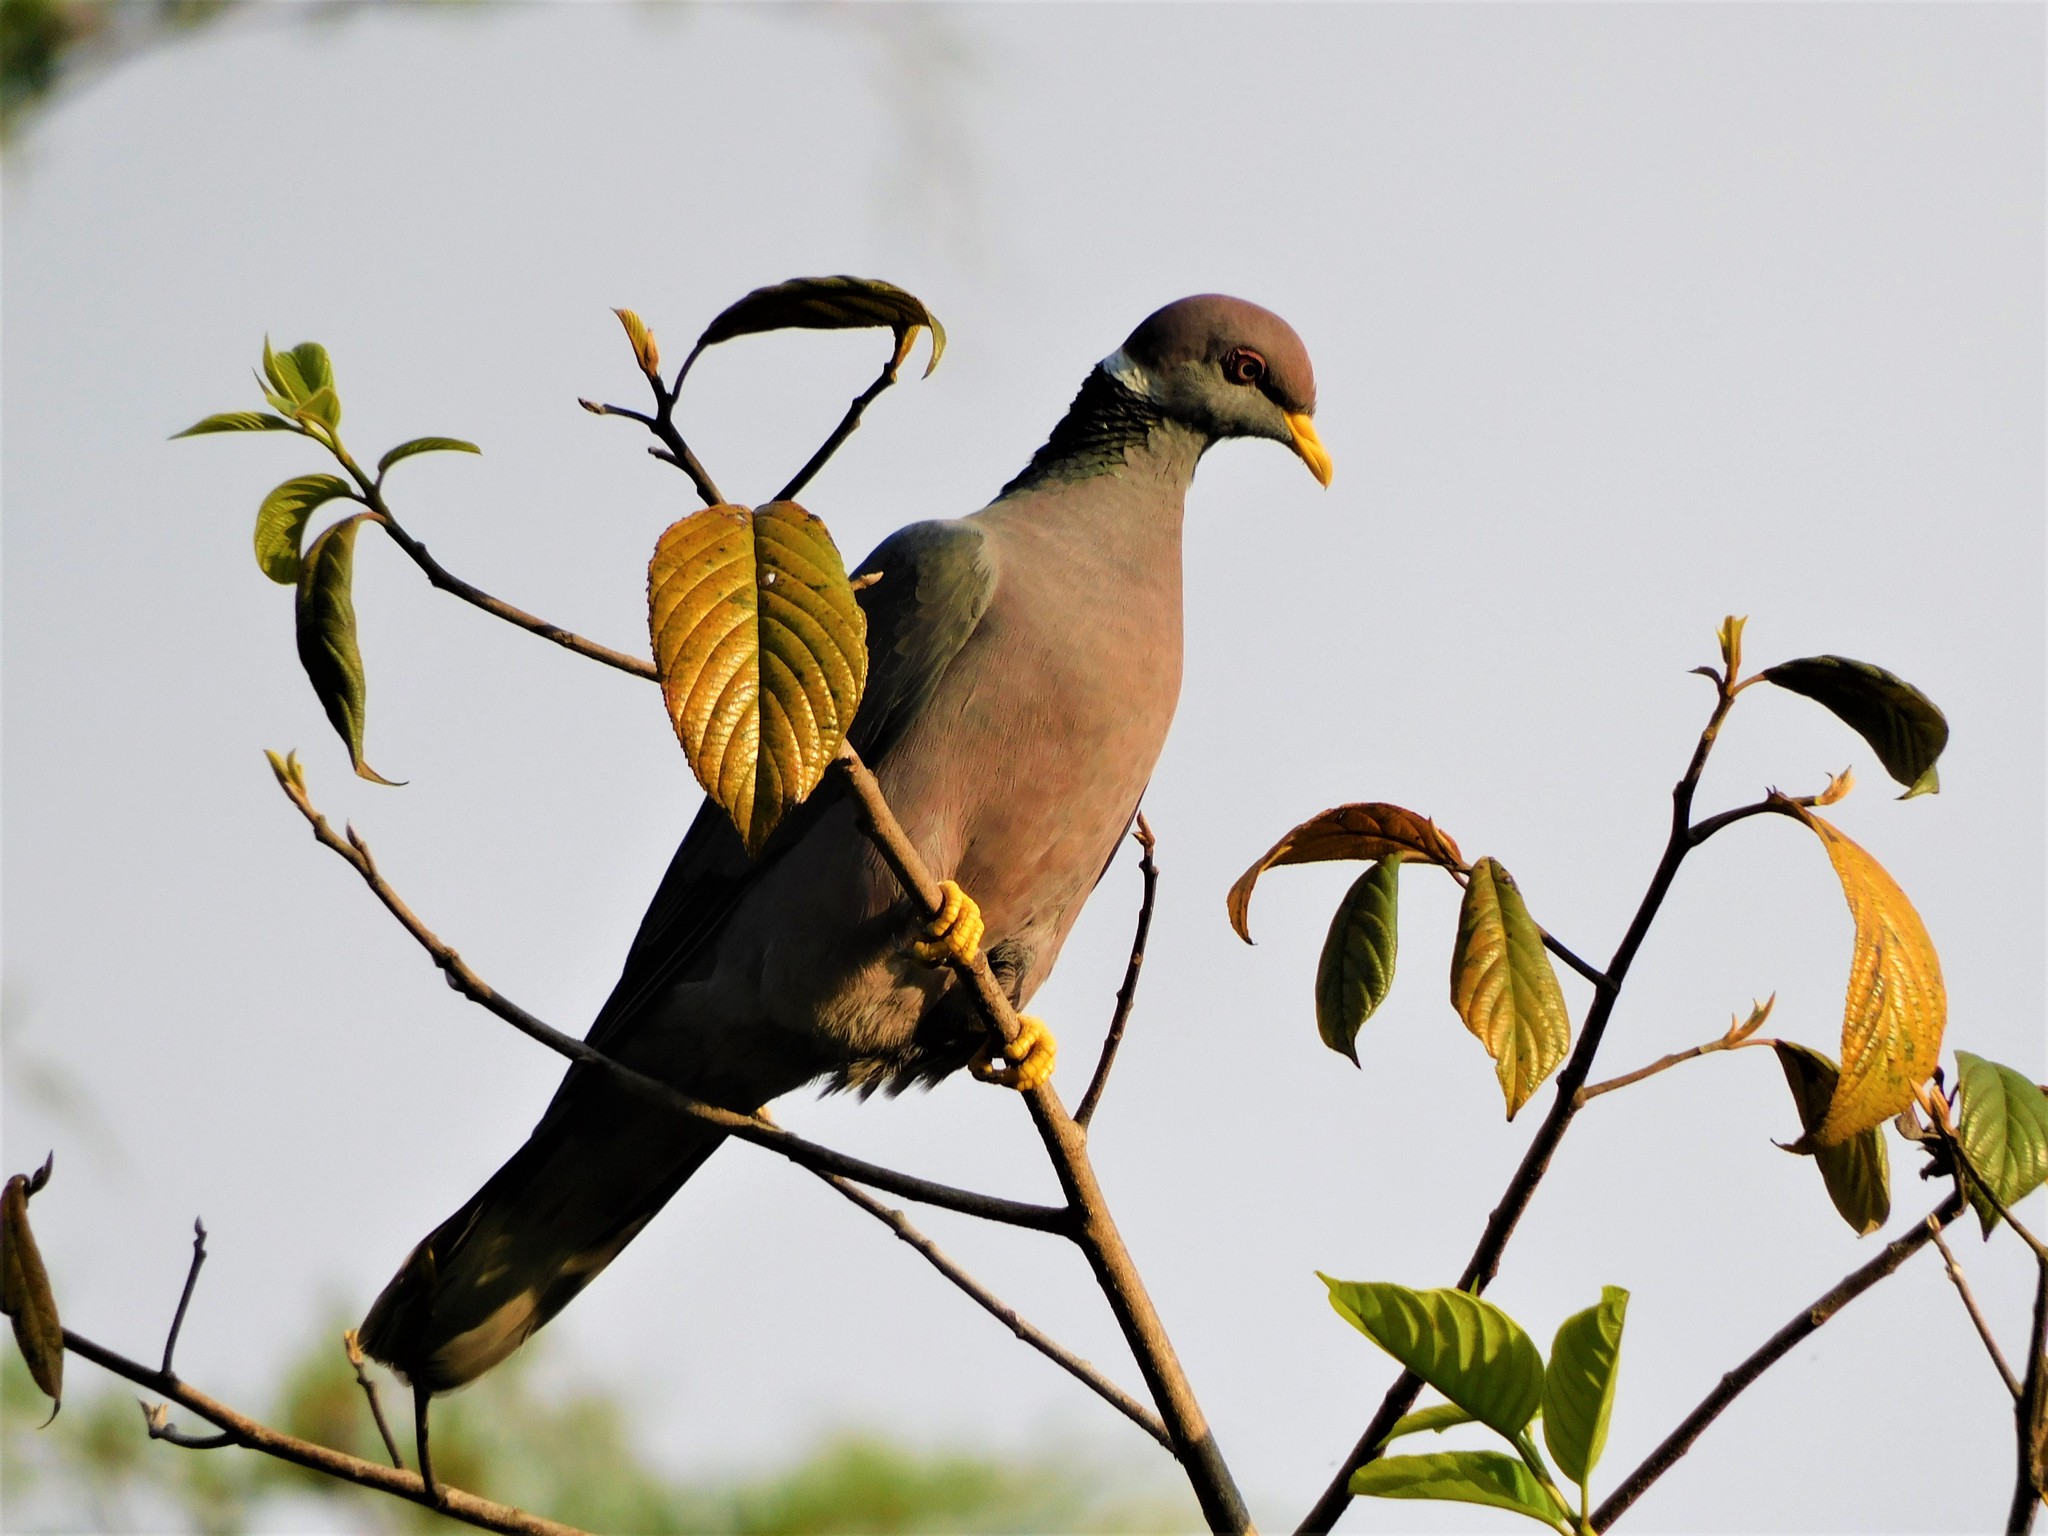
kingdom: Animalia
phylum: Chordata
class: Aves
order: Columbiformes
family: Columbidae
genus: Patagioenas
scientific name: Patagioenas fasciata
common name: Band-tailed pigeon
